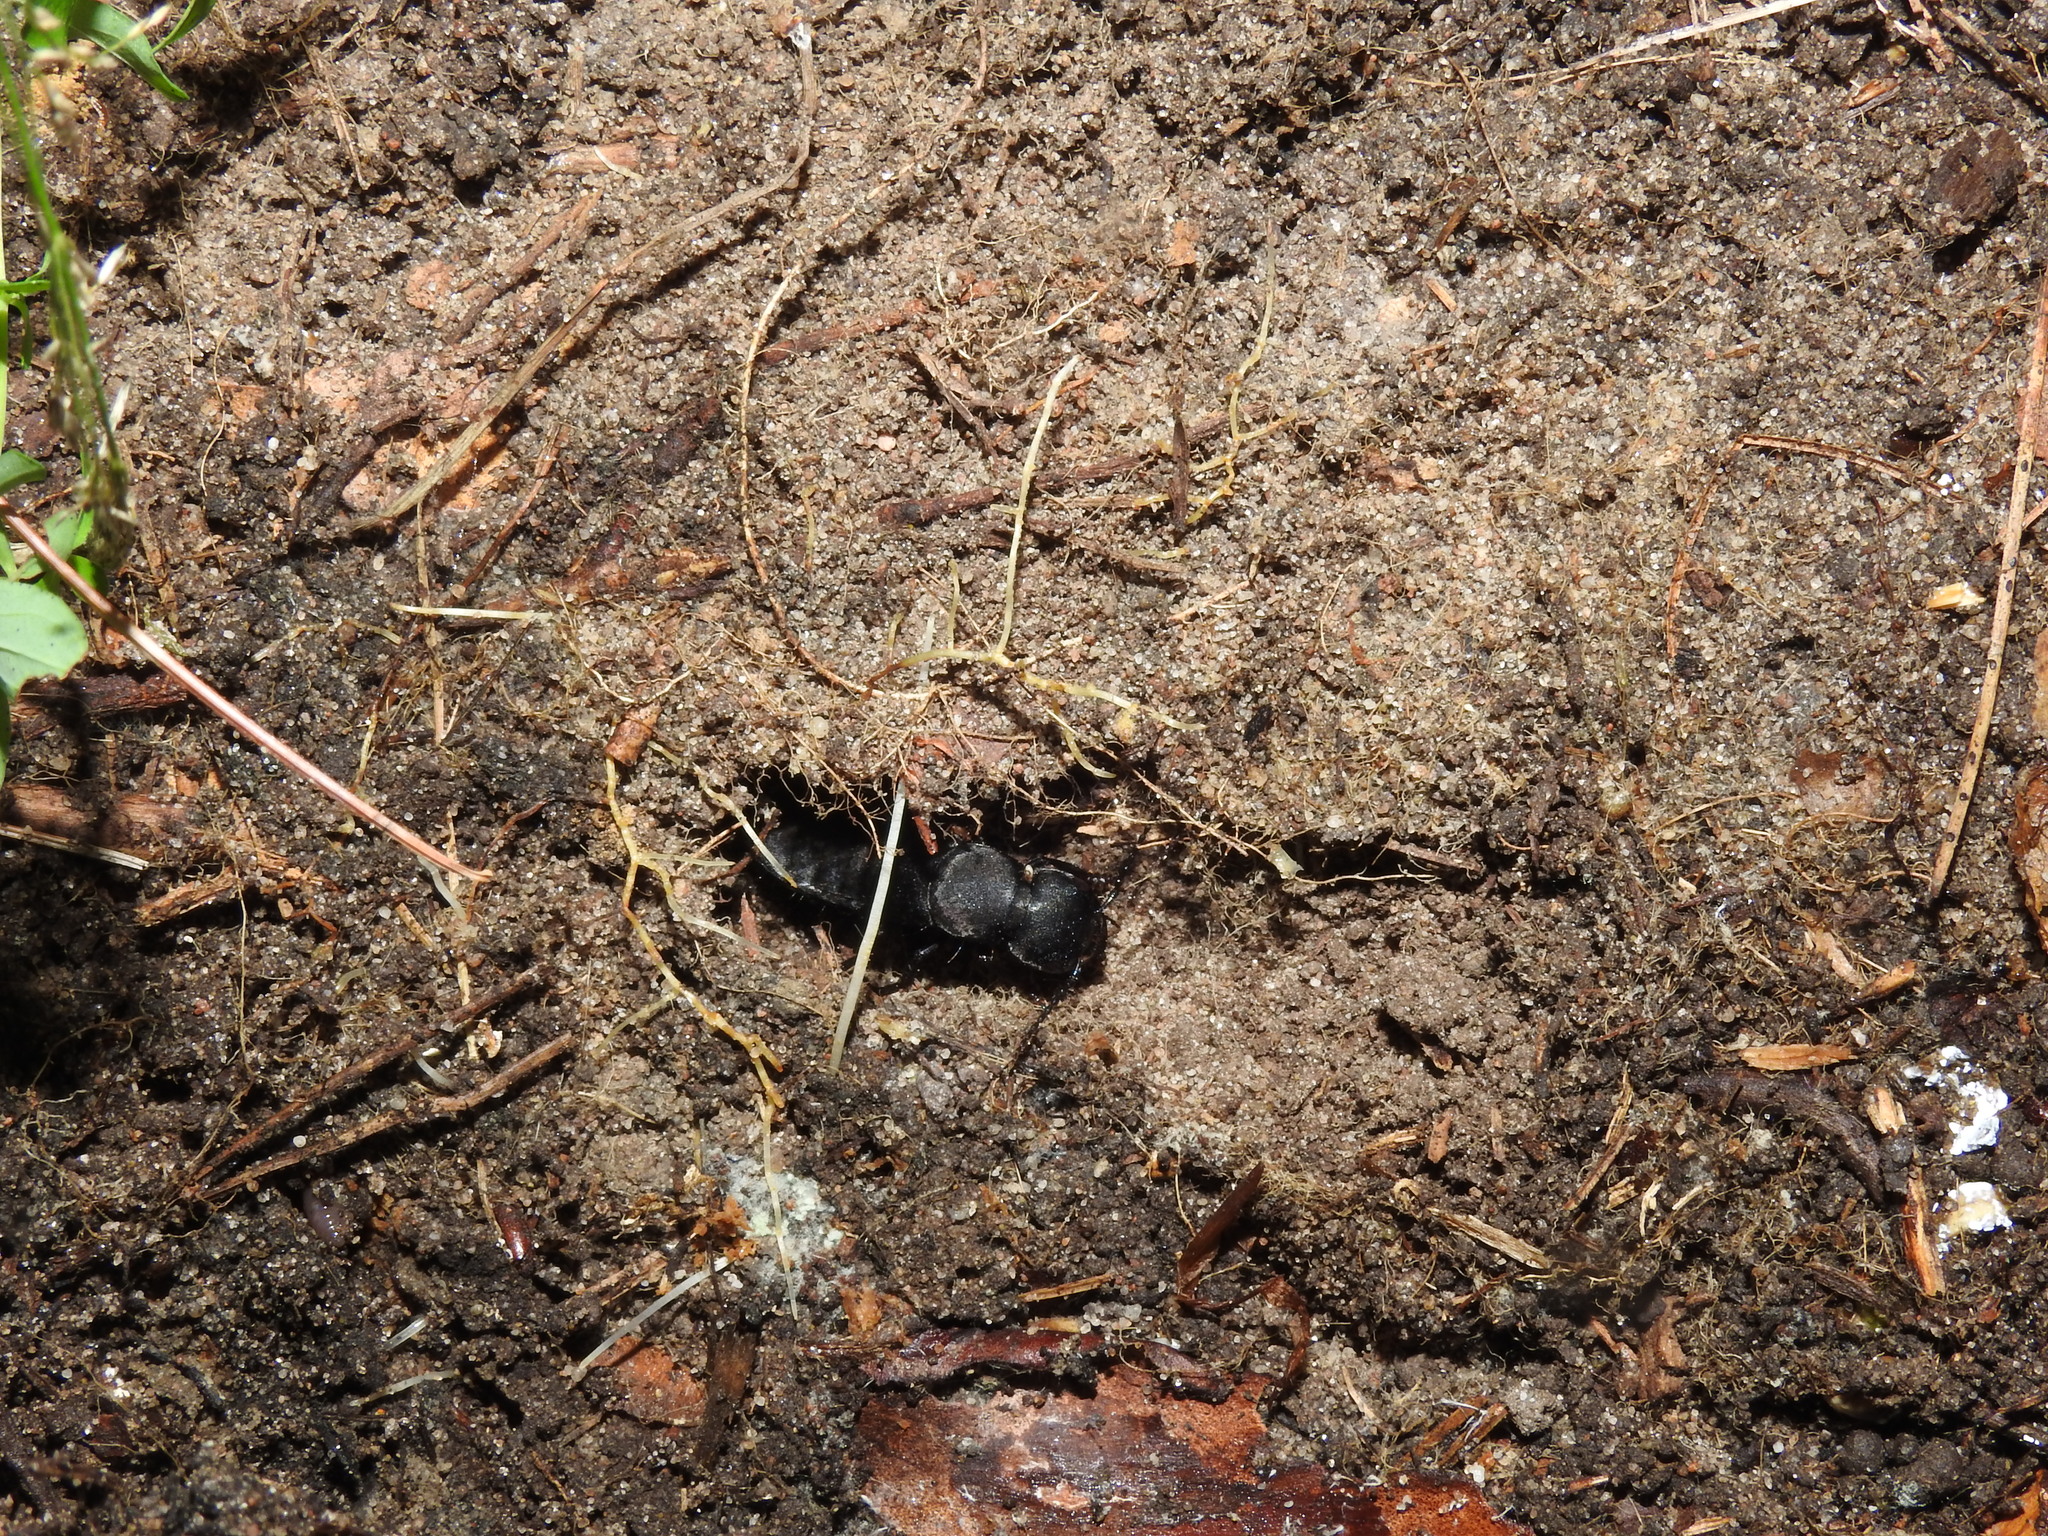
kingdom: Animalia
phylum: Arthropoda
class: Insecta
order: Coleoptera
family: Staphylinidae
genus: Ocypus
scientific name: Ocypus nitens
